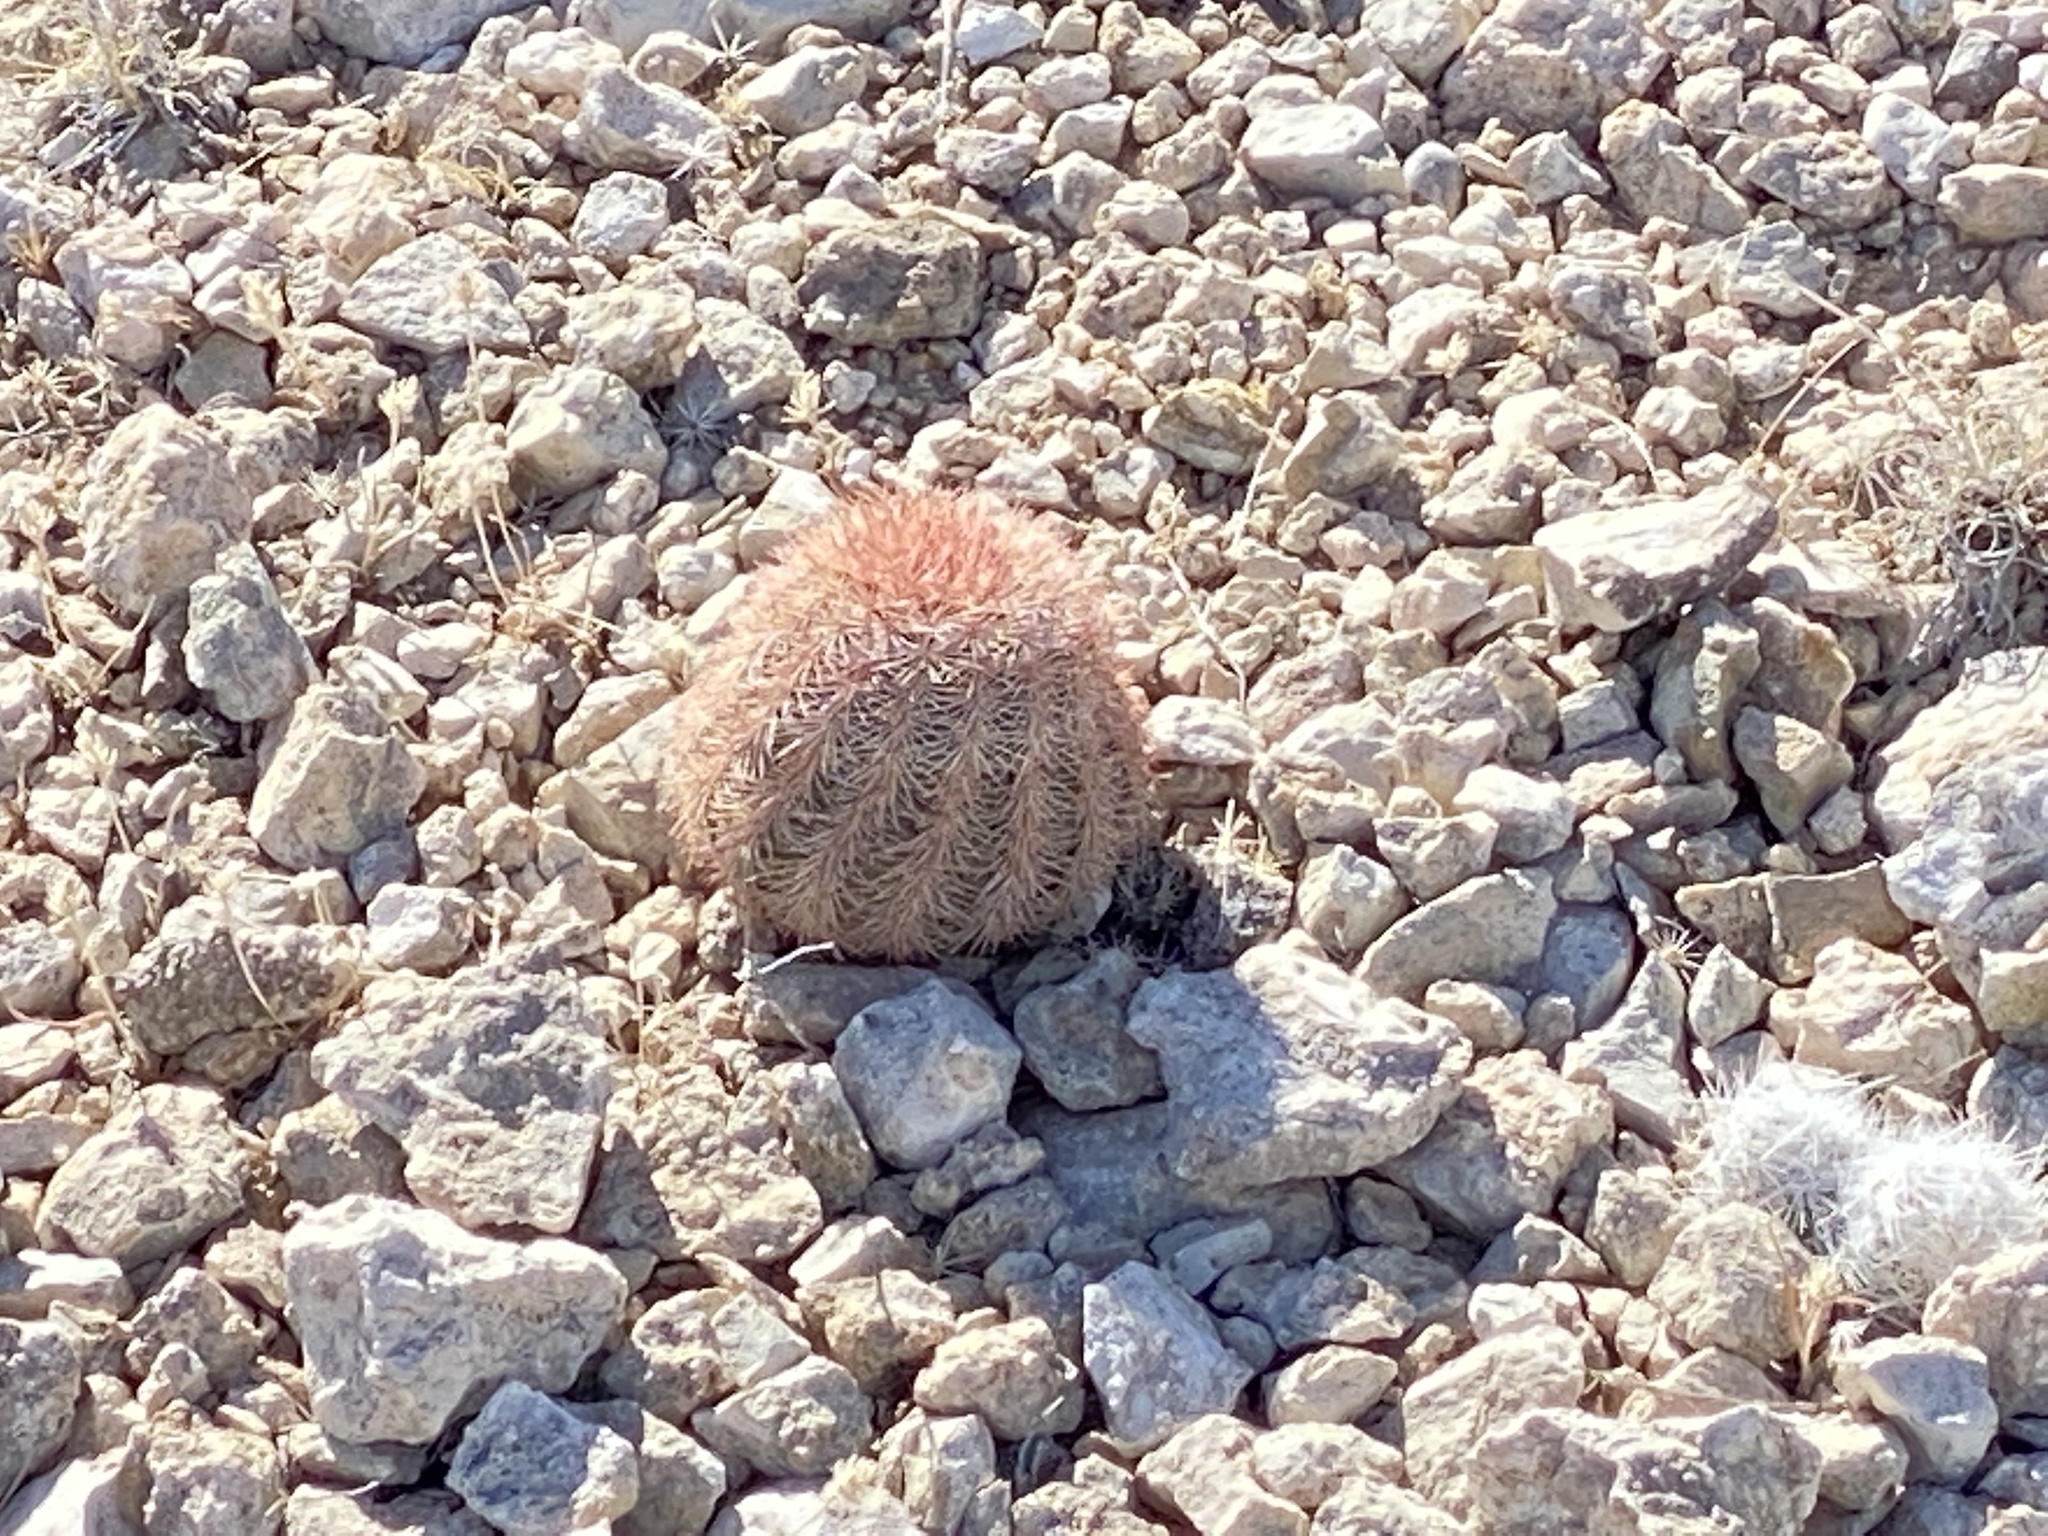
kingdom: Plantae
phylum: Tracheophyta
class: Magnoliopsida
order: Caryophyllales
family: Cactaceae
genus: Echinocereus
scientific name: Echinocereus dasyacanthus
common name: Spiny hedgehog cactus
